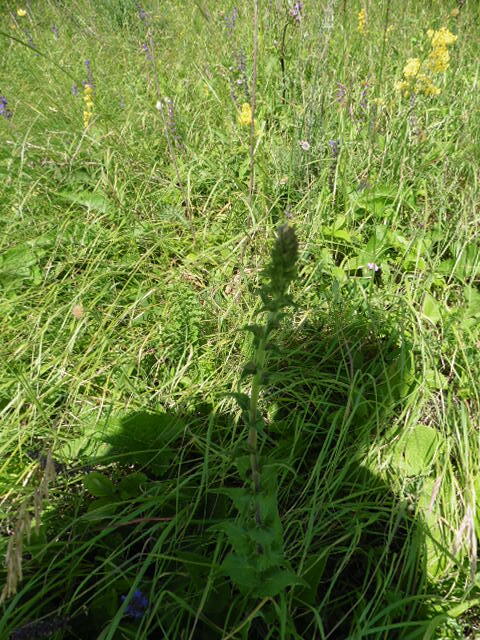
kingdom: Plantae
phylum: Tracheophyta
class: Magnoliopsida
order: Asterales
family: Campanulaceae
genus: Campanula
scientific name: Campanula bononiensis
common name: Pale bellflower
